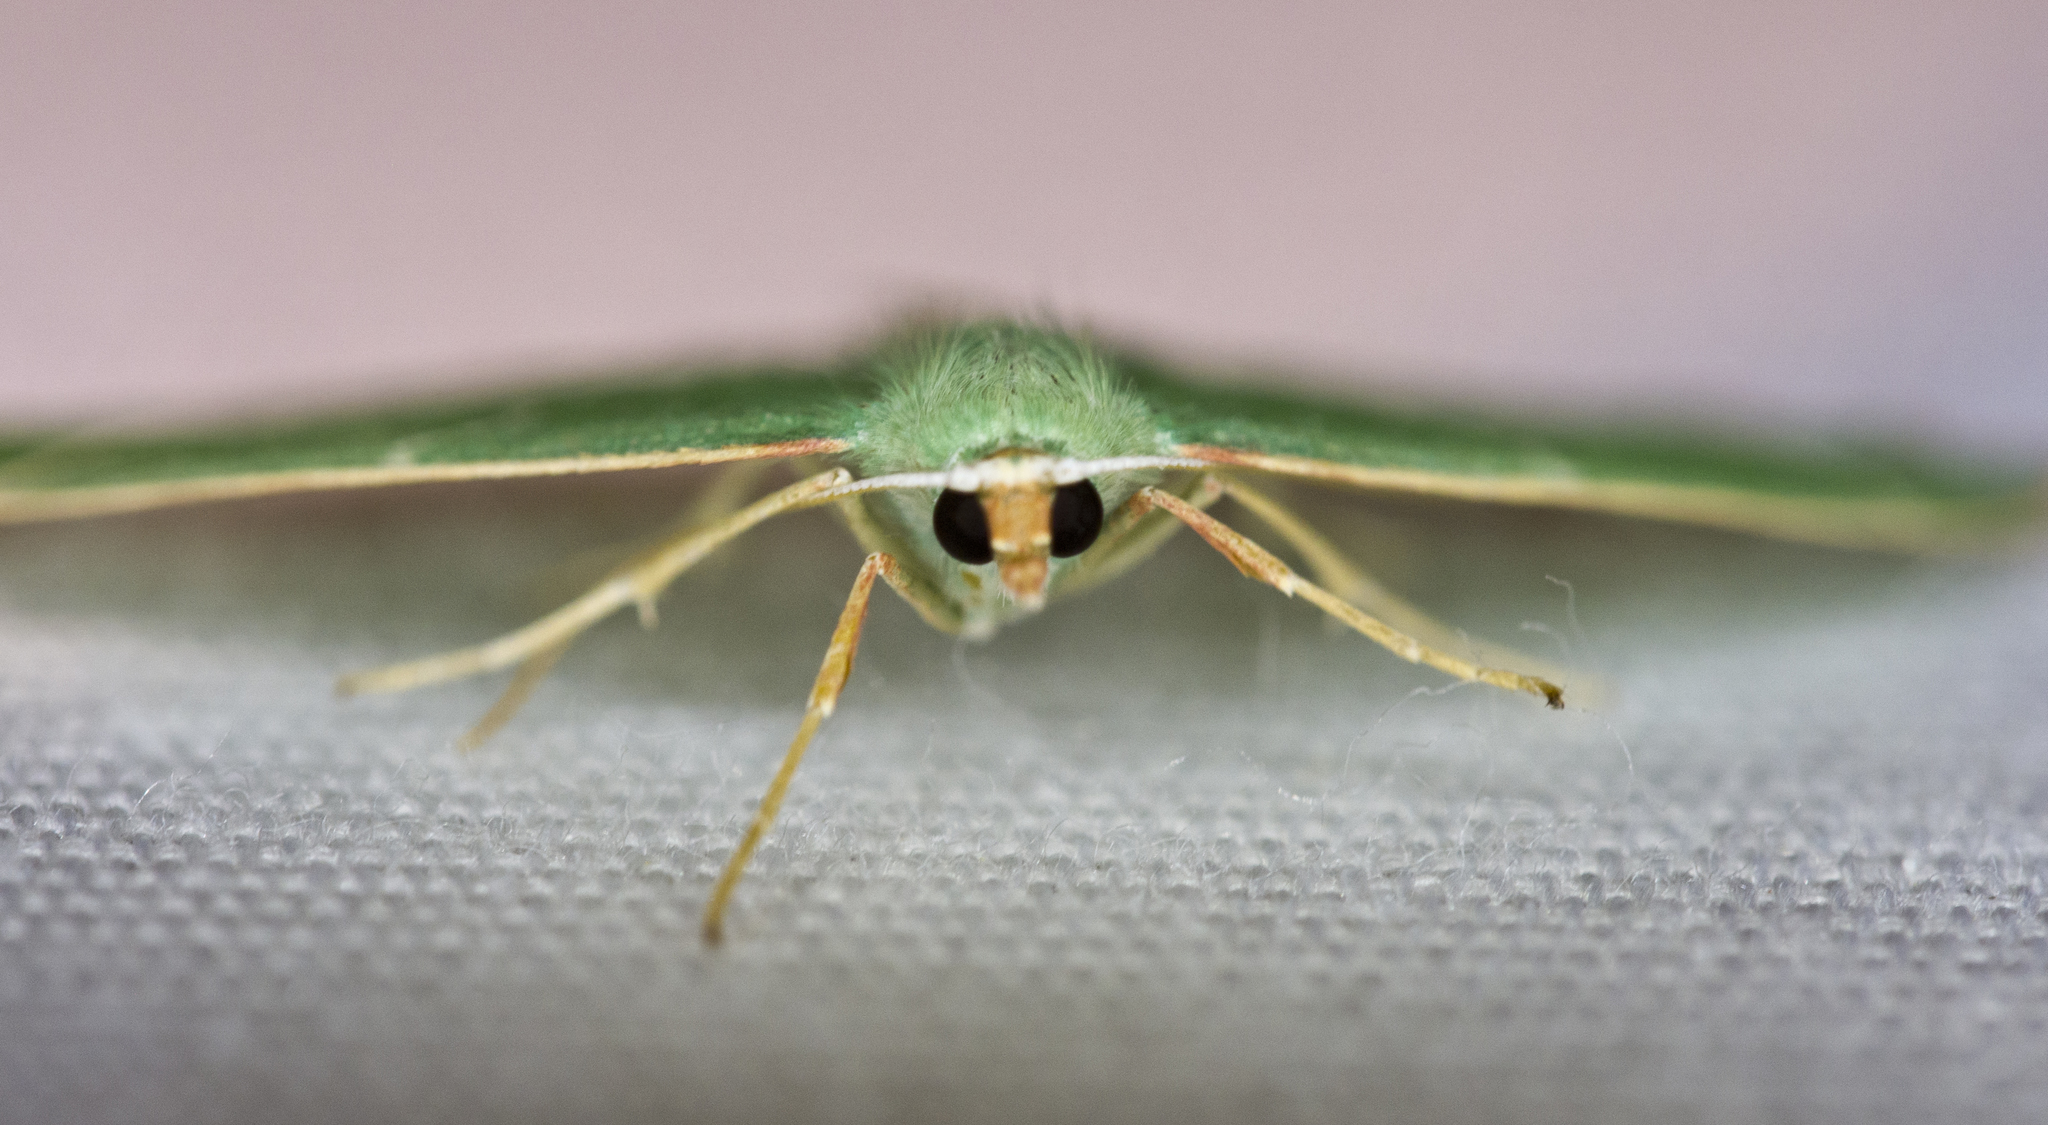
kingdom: Animalia
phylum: Arthropoda
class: Insecta
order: Lepidoptera
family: Geometridae
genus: Nemoria
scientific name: Nemoria obliqua
